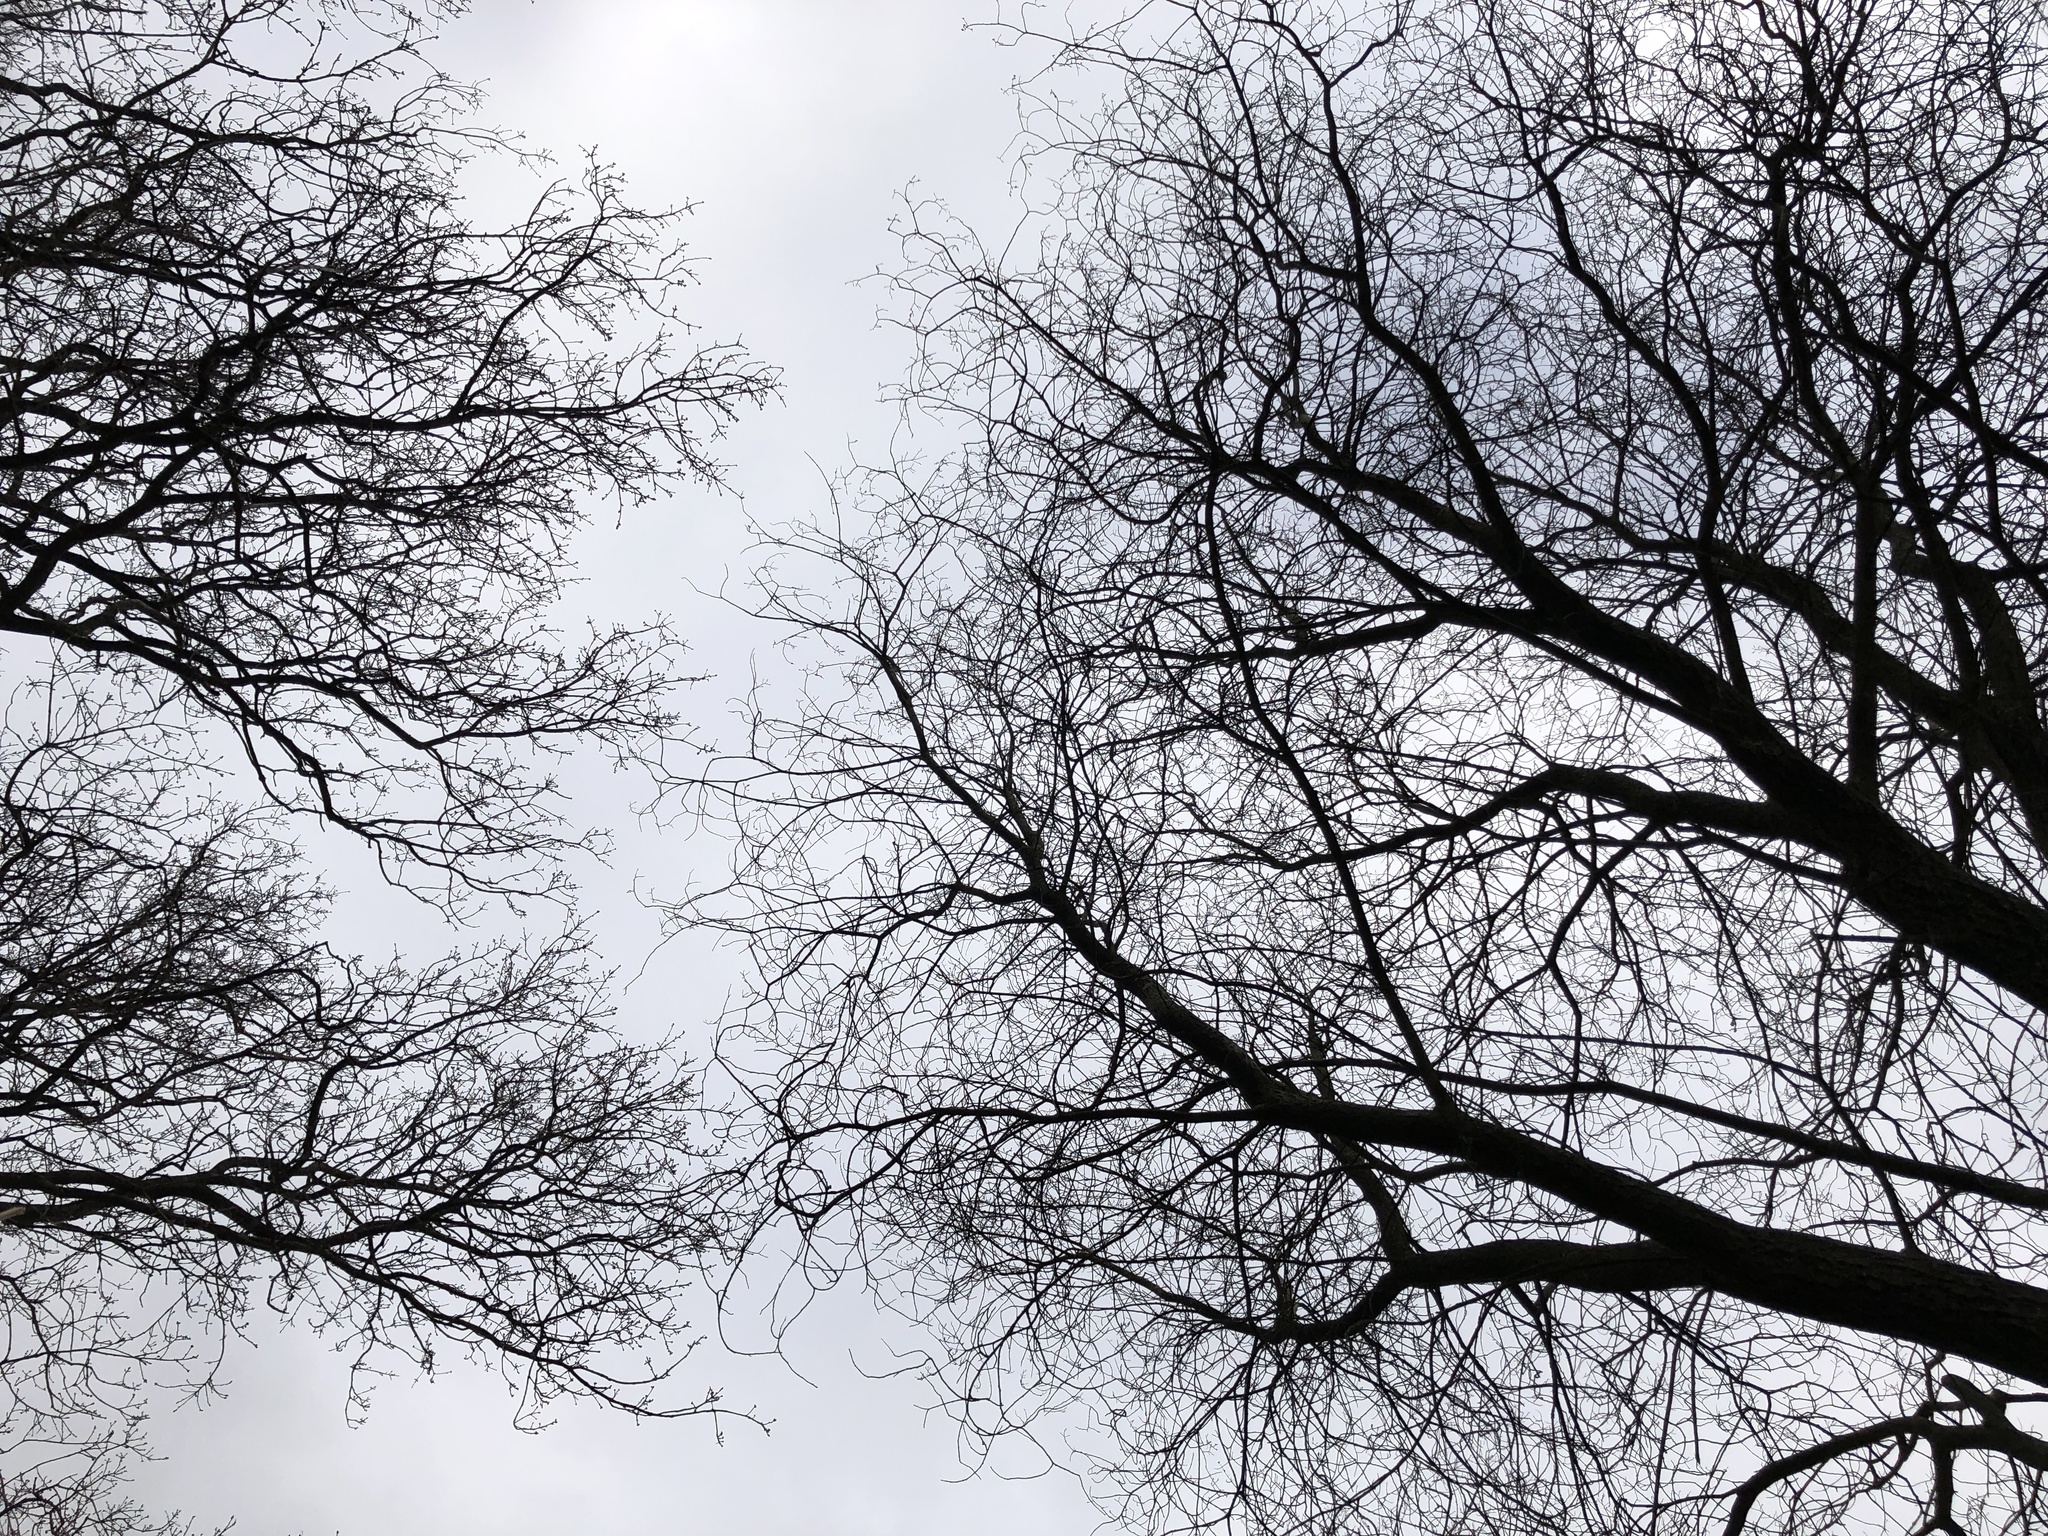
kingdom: Plantae
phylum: Bryophyta
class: Bryopsida
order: Aulacomniales
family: Aulacomniaceae
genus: Aulacomnium
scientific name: Aulacomnium palustre
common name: Bog groove-moss
